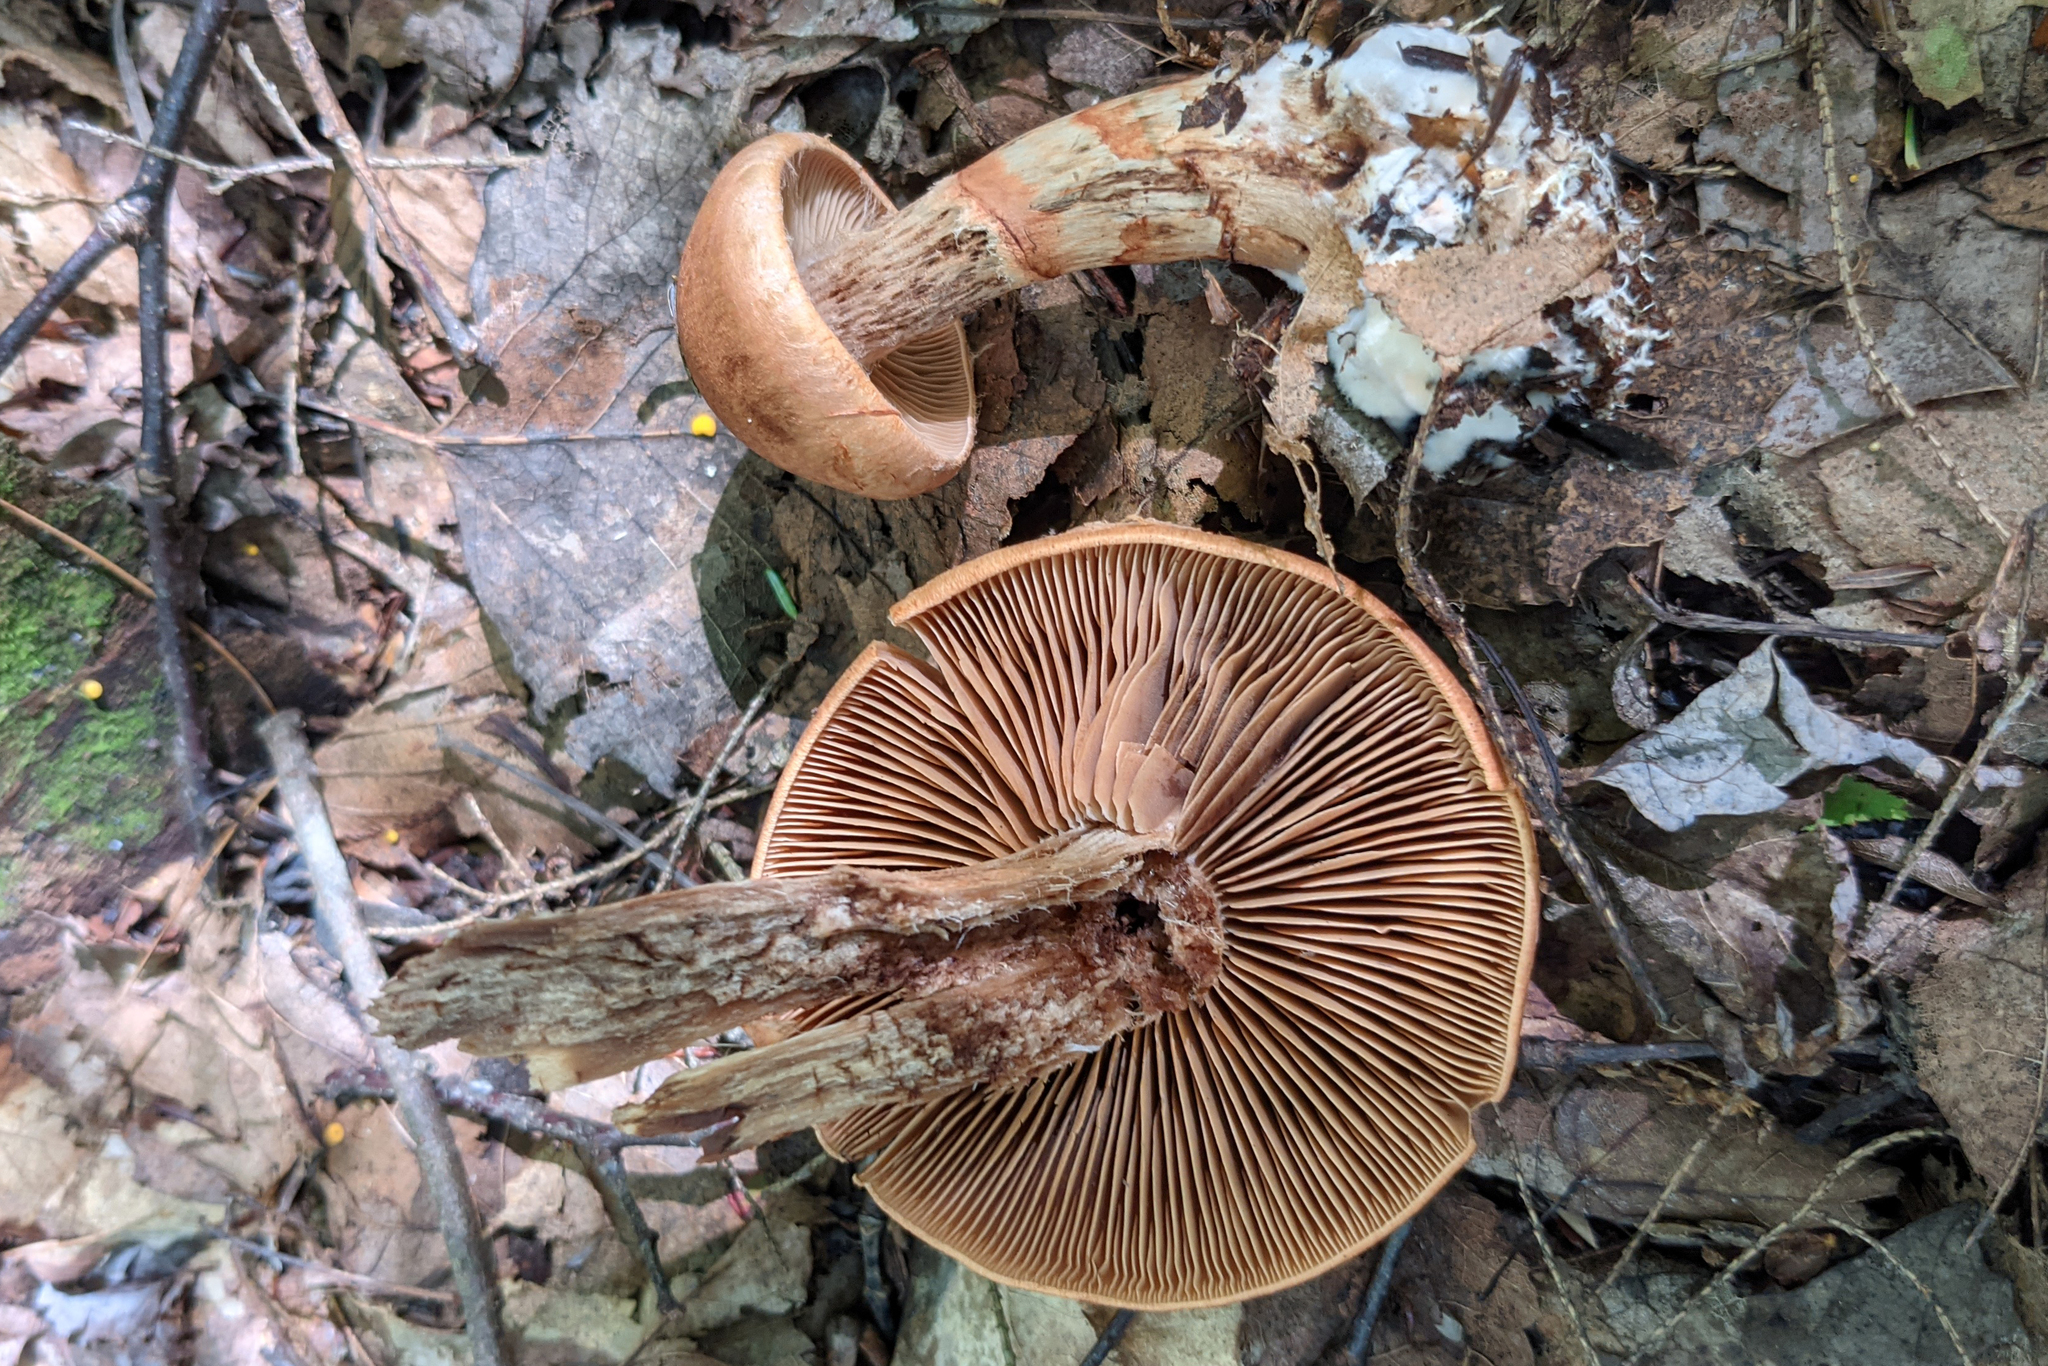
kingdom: Fungi
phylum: Basidiomycota
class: Agaricomycetes
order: Agaricales
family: Cortinariaceae
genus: Cortinarius
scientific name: Cortinarius armillatus
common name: Red banded webcap
